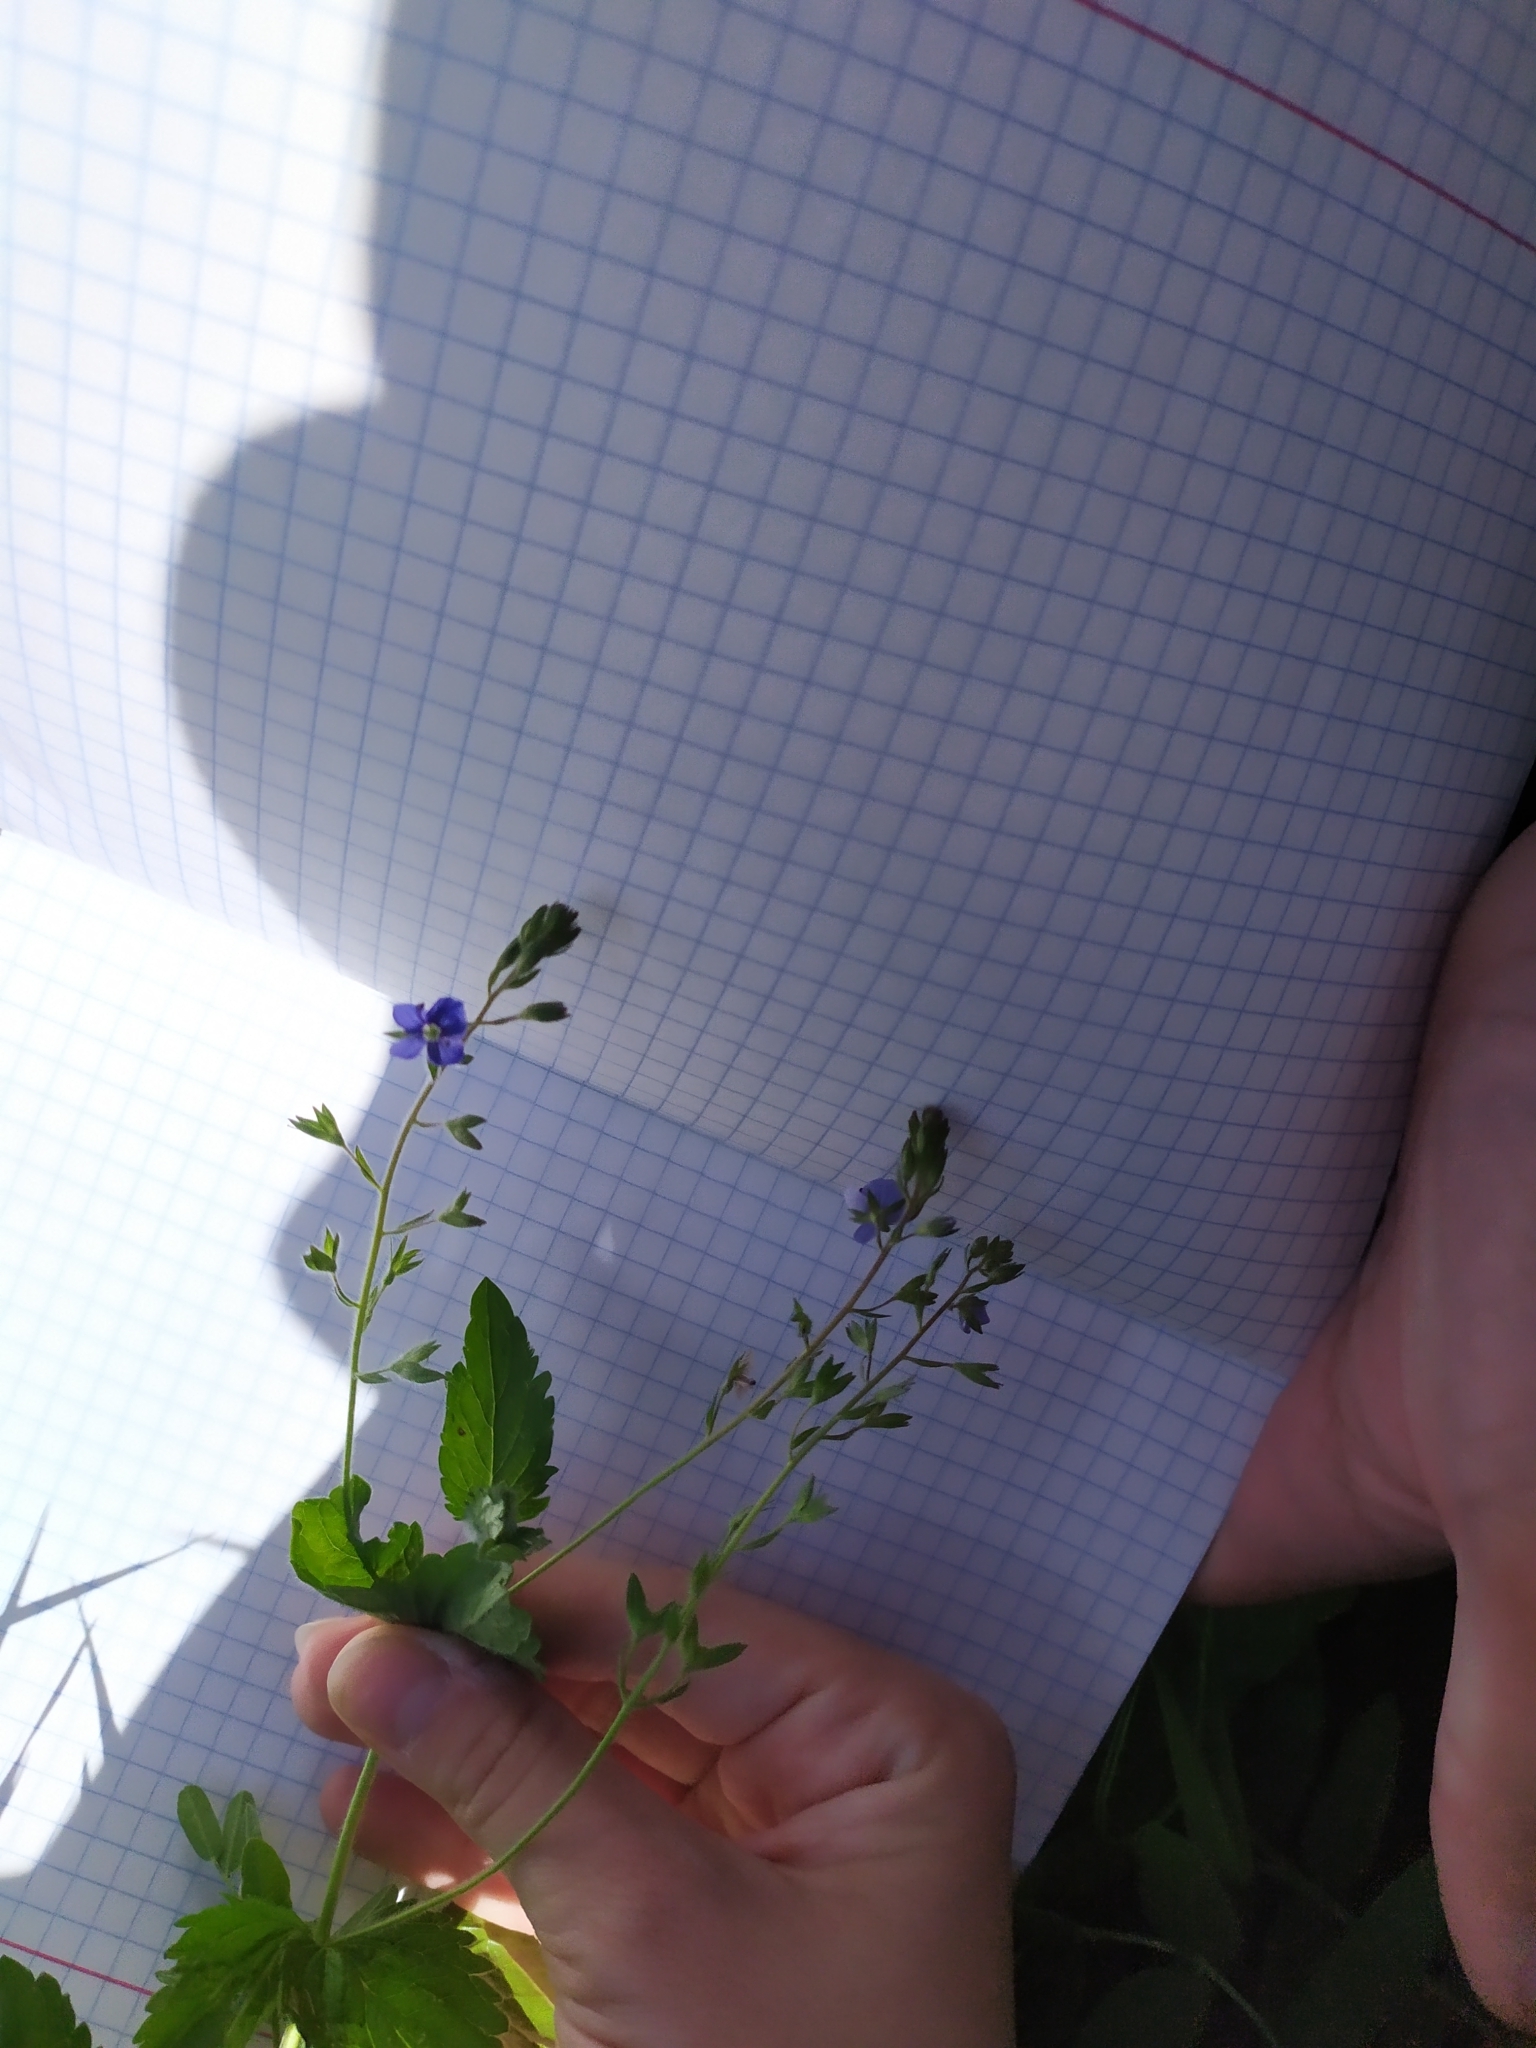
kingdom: Plantae
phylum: Tracheophyta
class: Magnoliopsida
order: Lamiales
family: Plantaginaceae
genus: Veronica
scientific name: Veronica chamaedrys
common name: Germander speedwell
